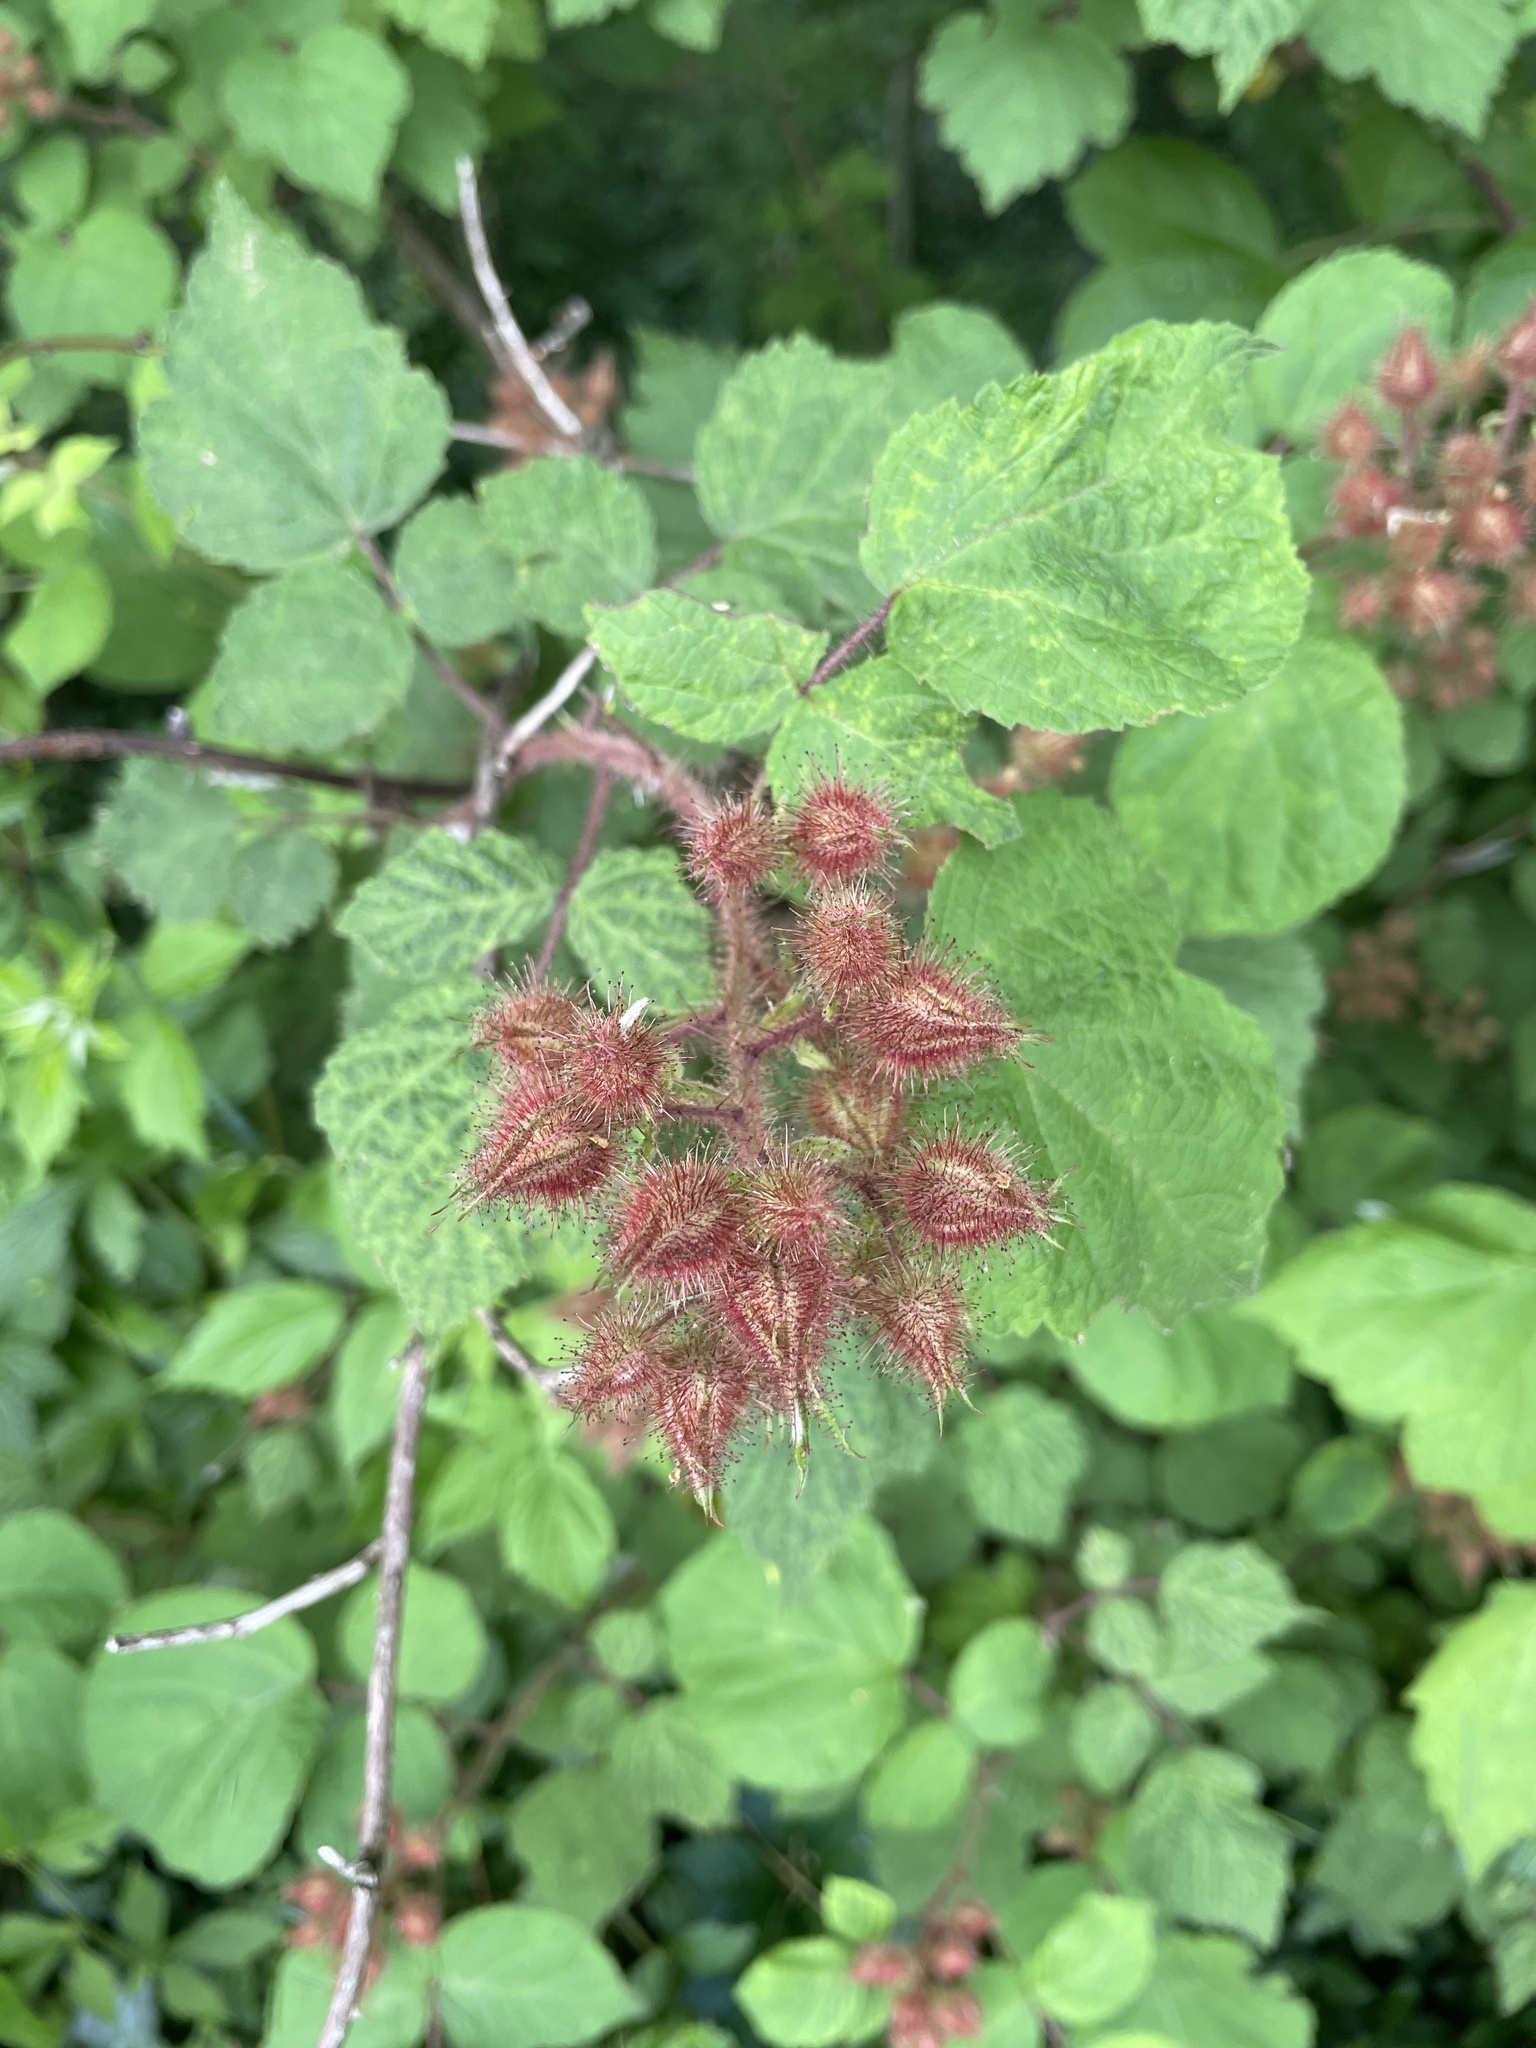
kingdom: Plantae
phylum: Tracheophyta
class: Magnoliopsida
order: Rosales
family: Rosaceae
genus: Rubus
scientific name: Rubus phoenicolasius
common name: Japanese wineberry
